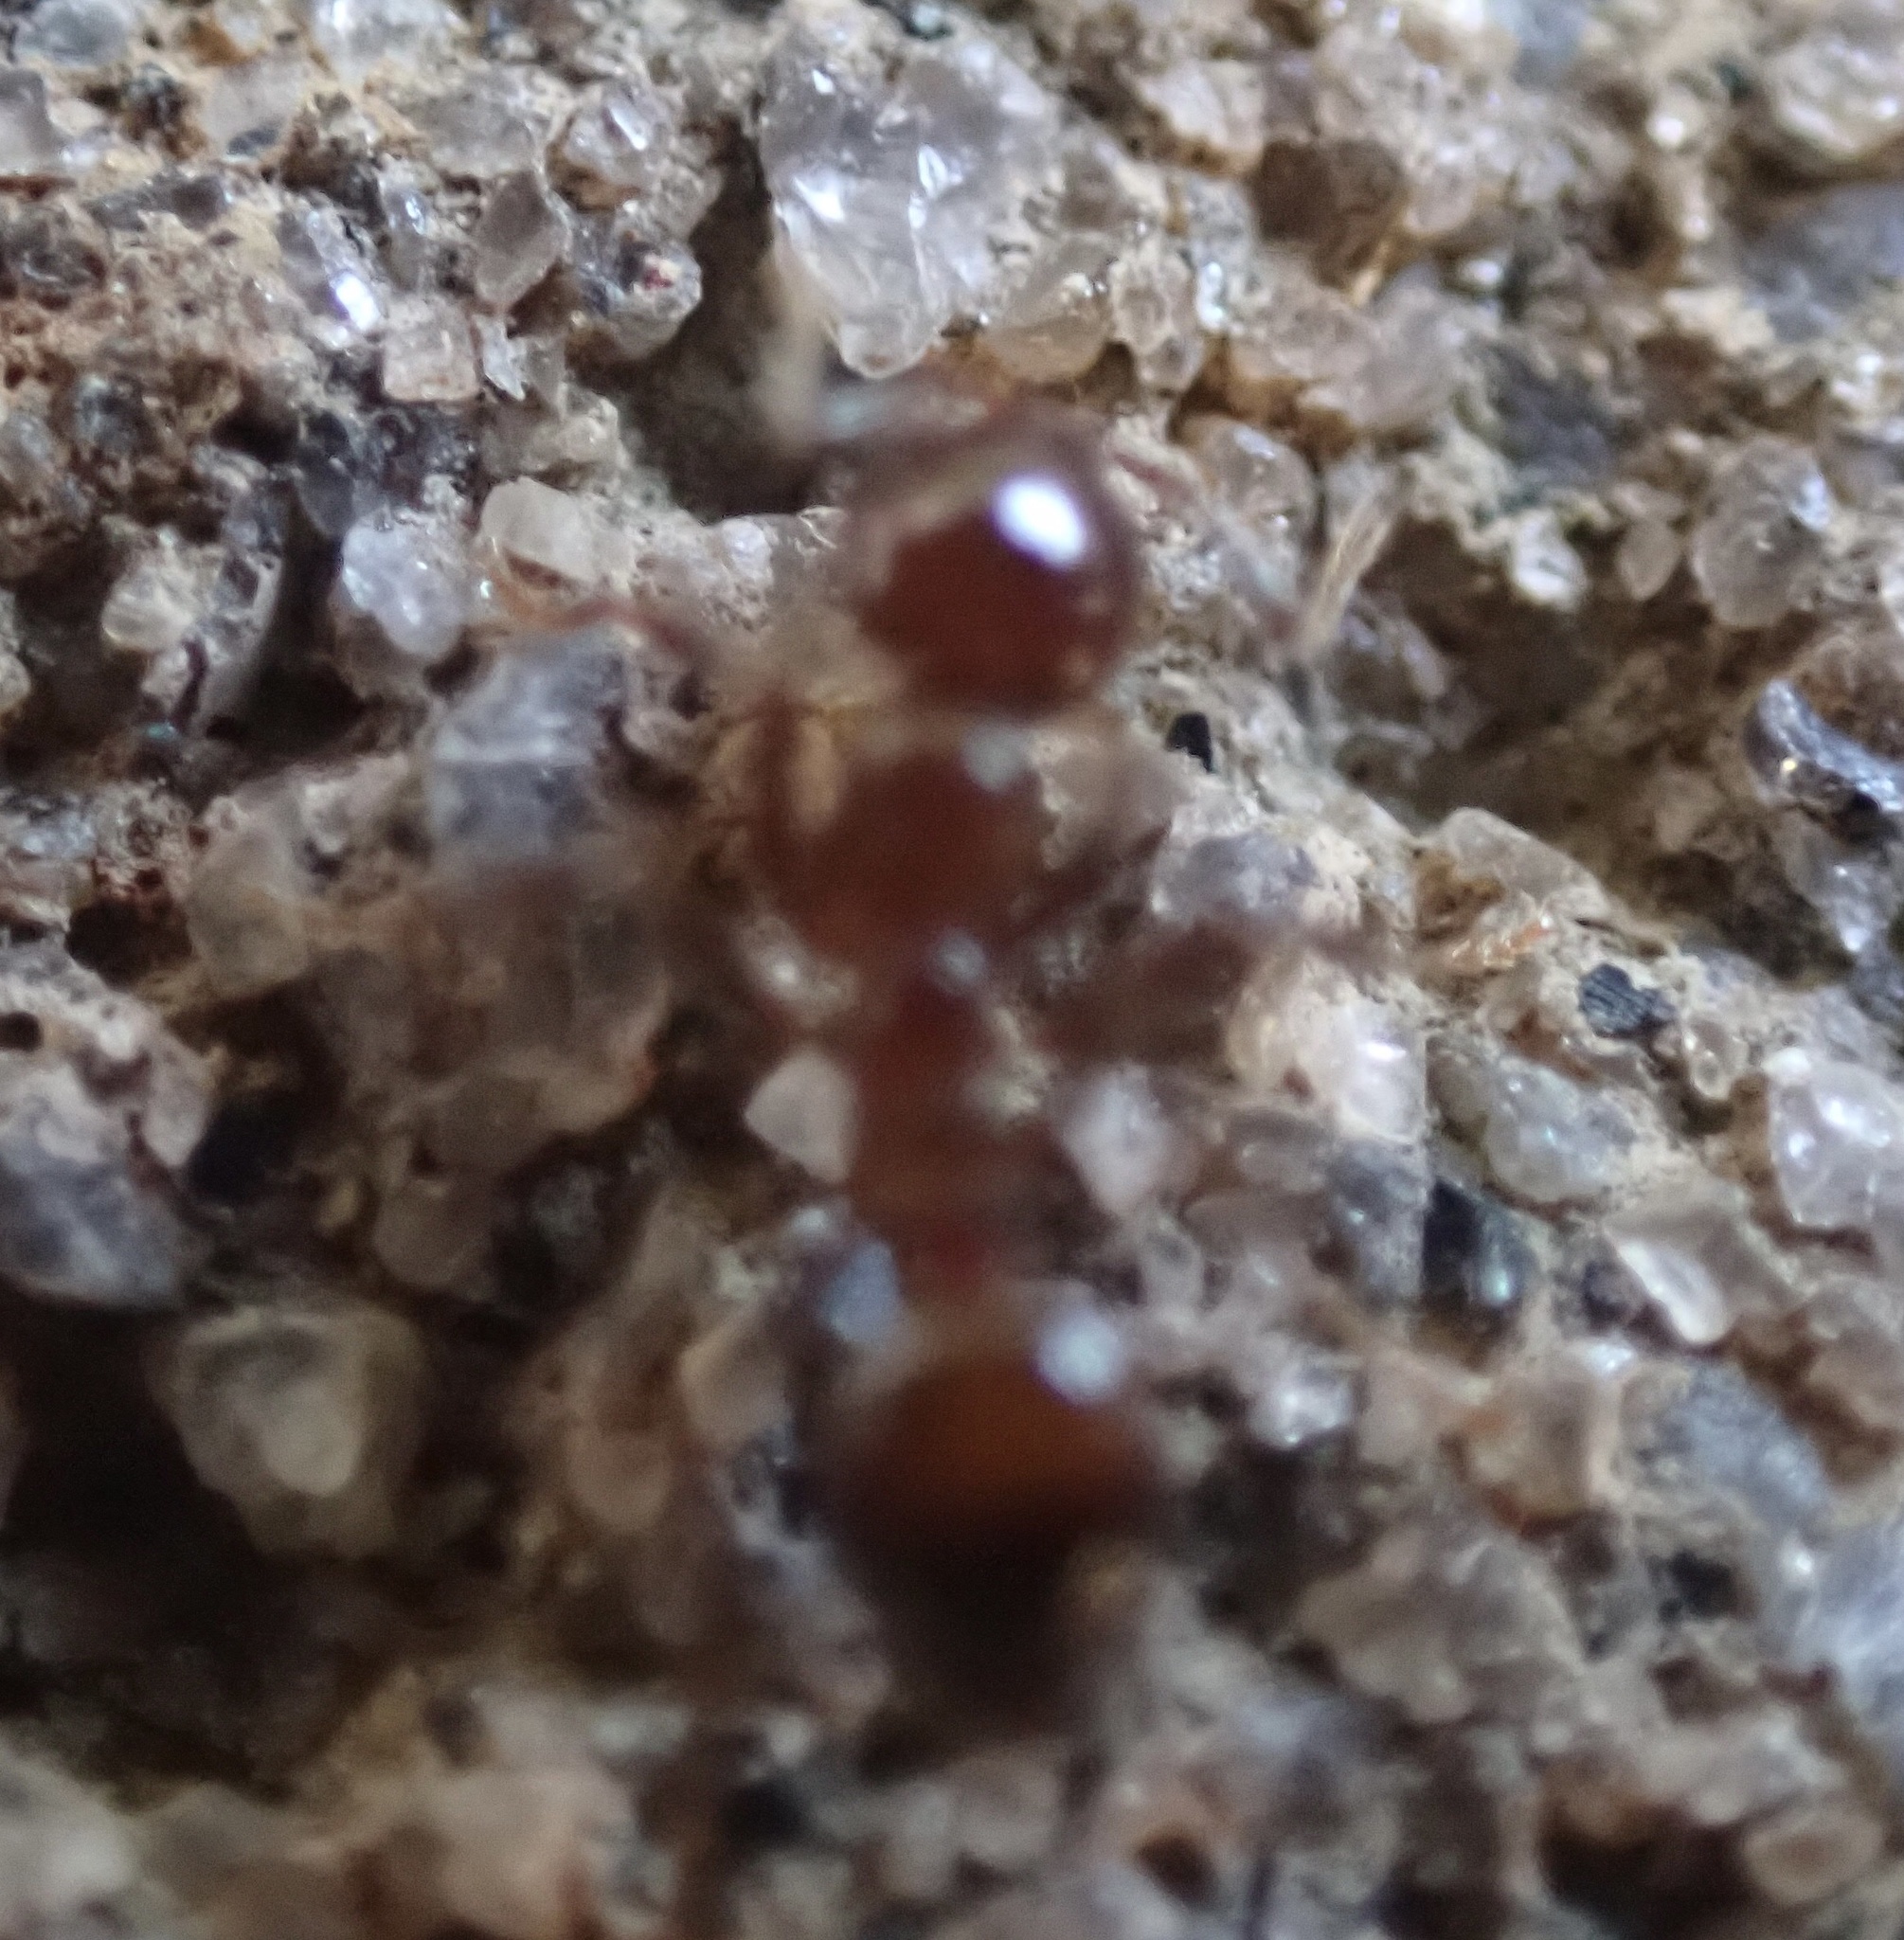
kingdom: Animalia
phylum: Arthropoda
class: Insecta
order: Hymenoptera
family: Formicidae
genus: Solenopsis
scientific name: Solenopsis
